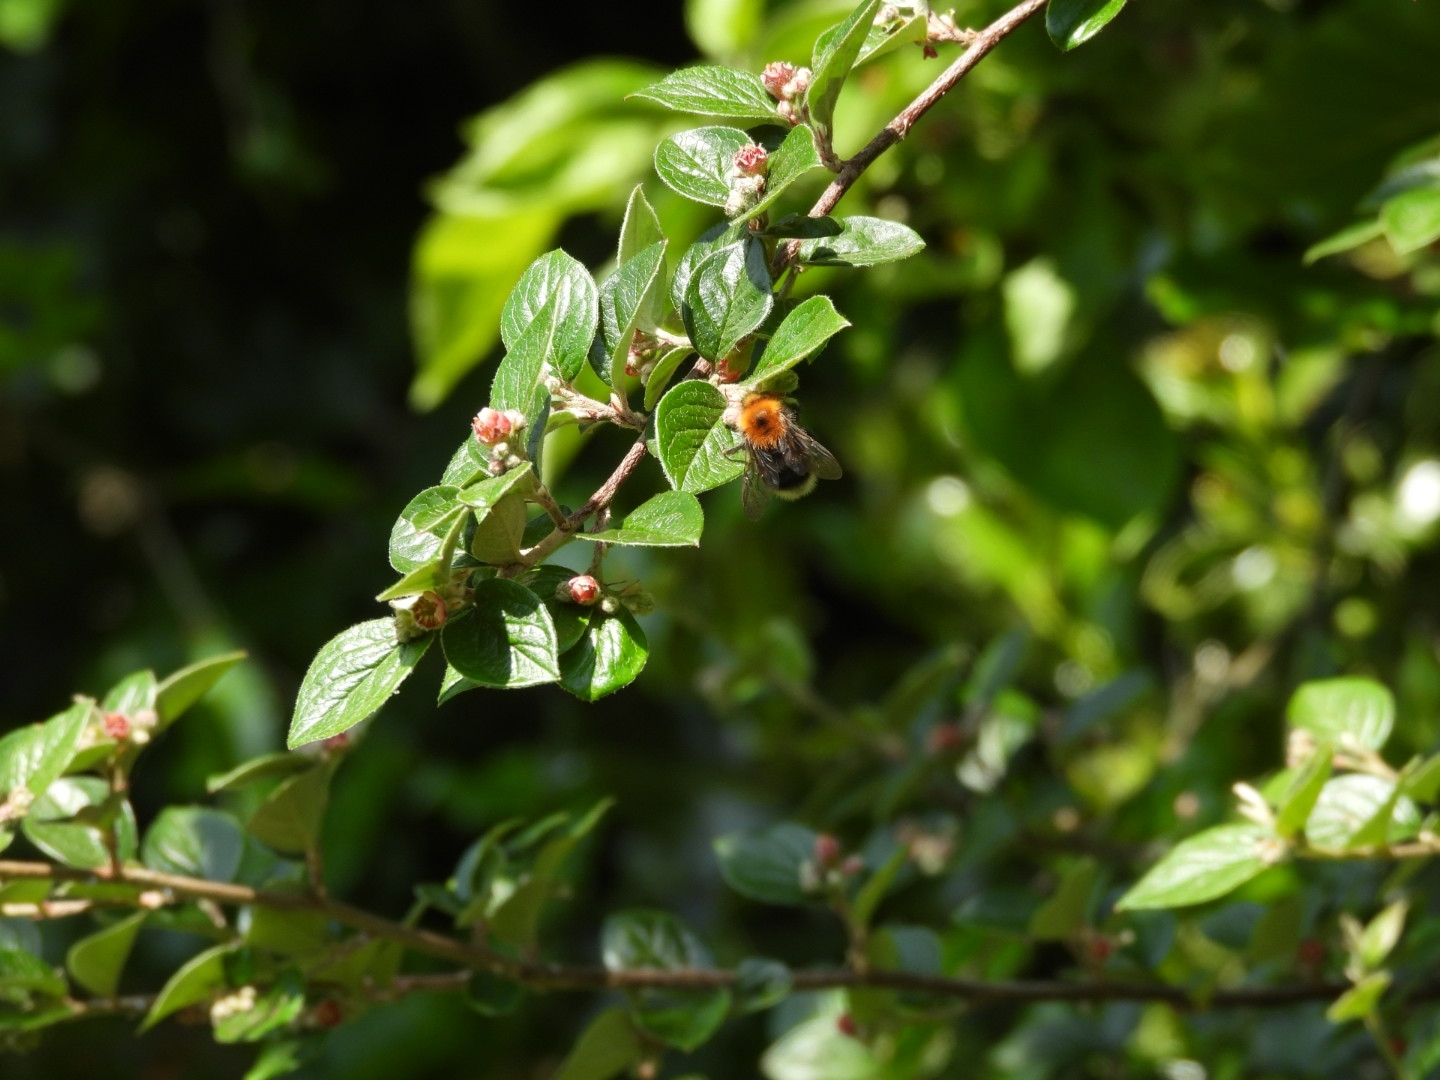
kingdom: Animalia
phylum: Arthropoda
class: Insecta
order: Hymenoptera
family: Apidae
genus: Bombus
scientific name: Bombus hypnorum
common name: New garden bumblebee
